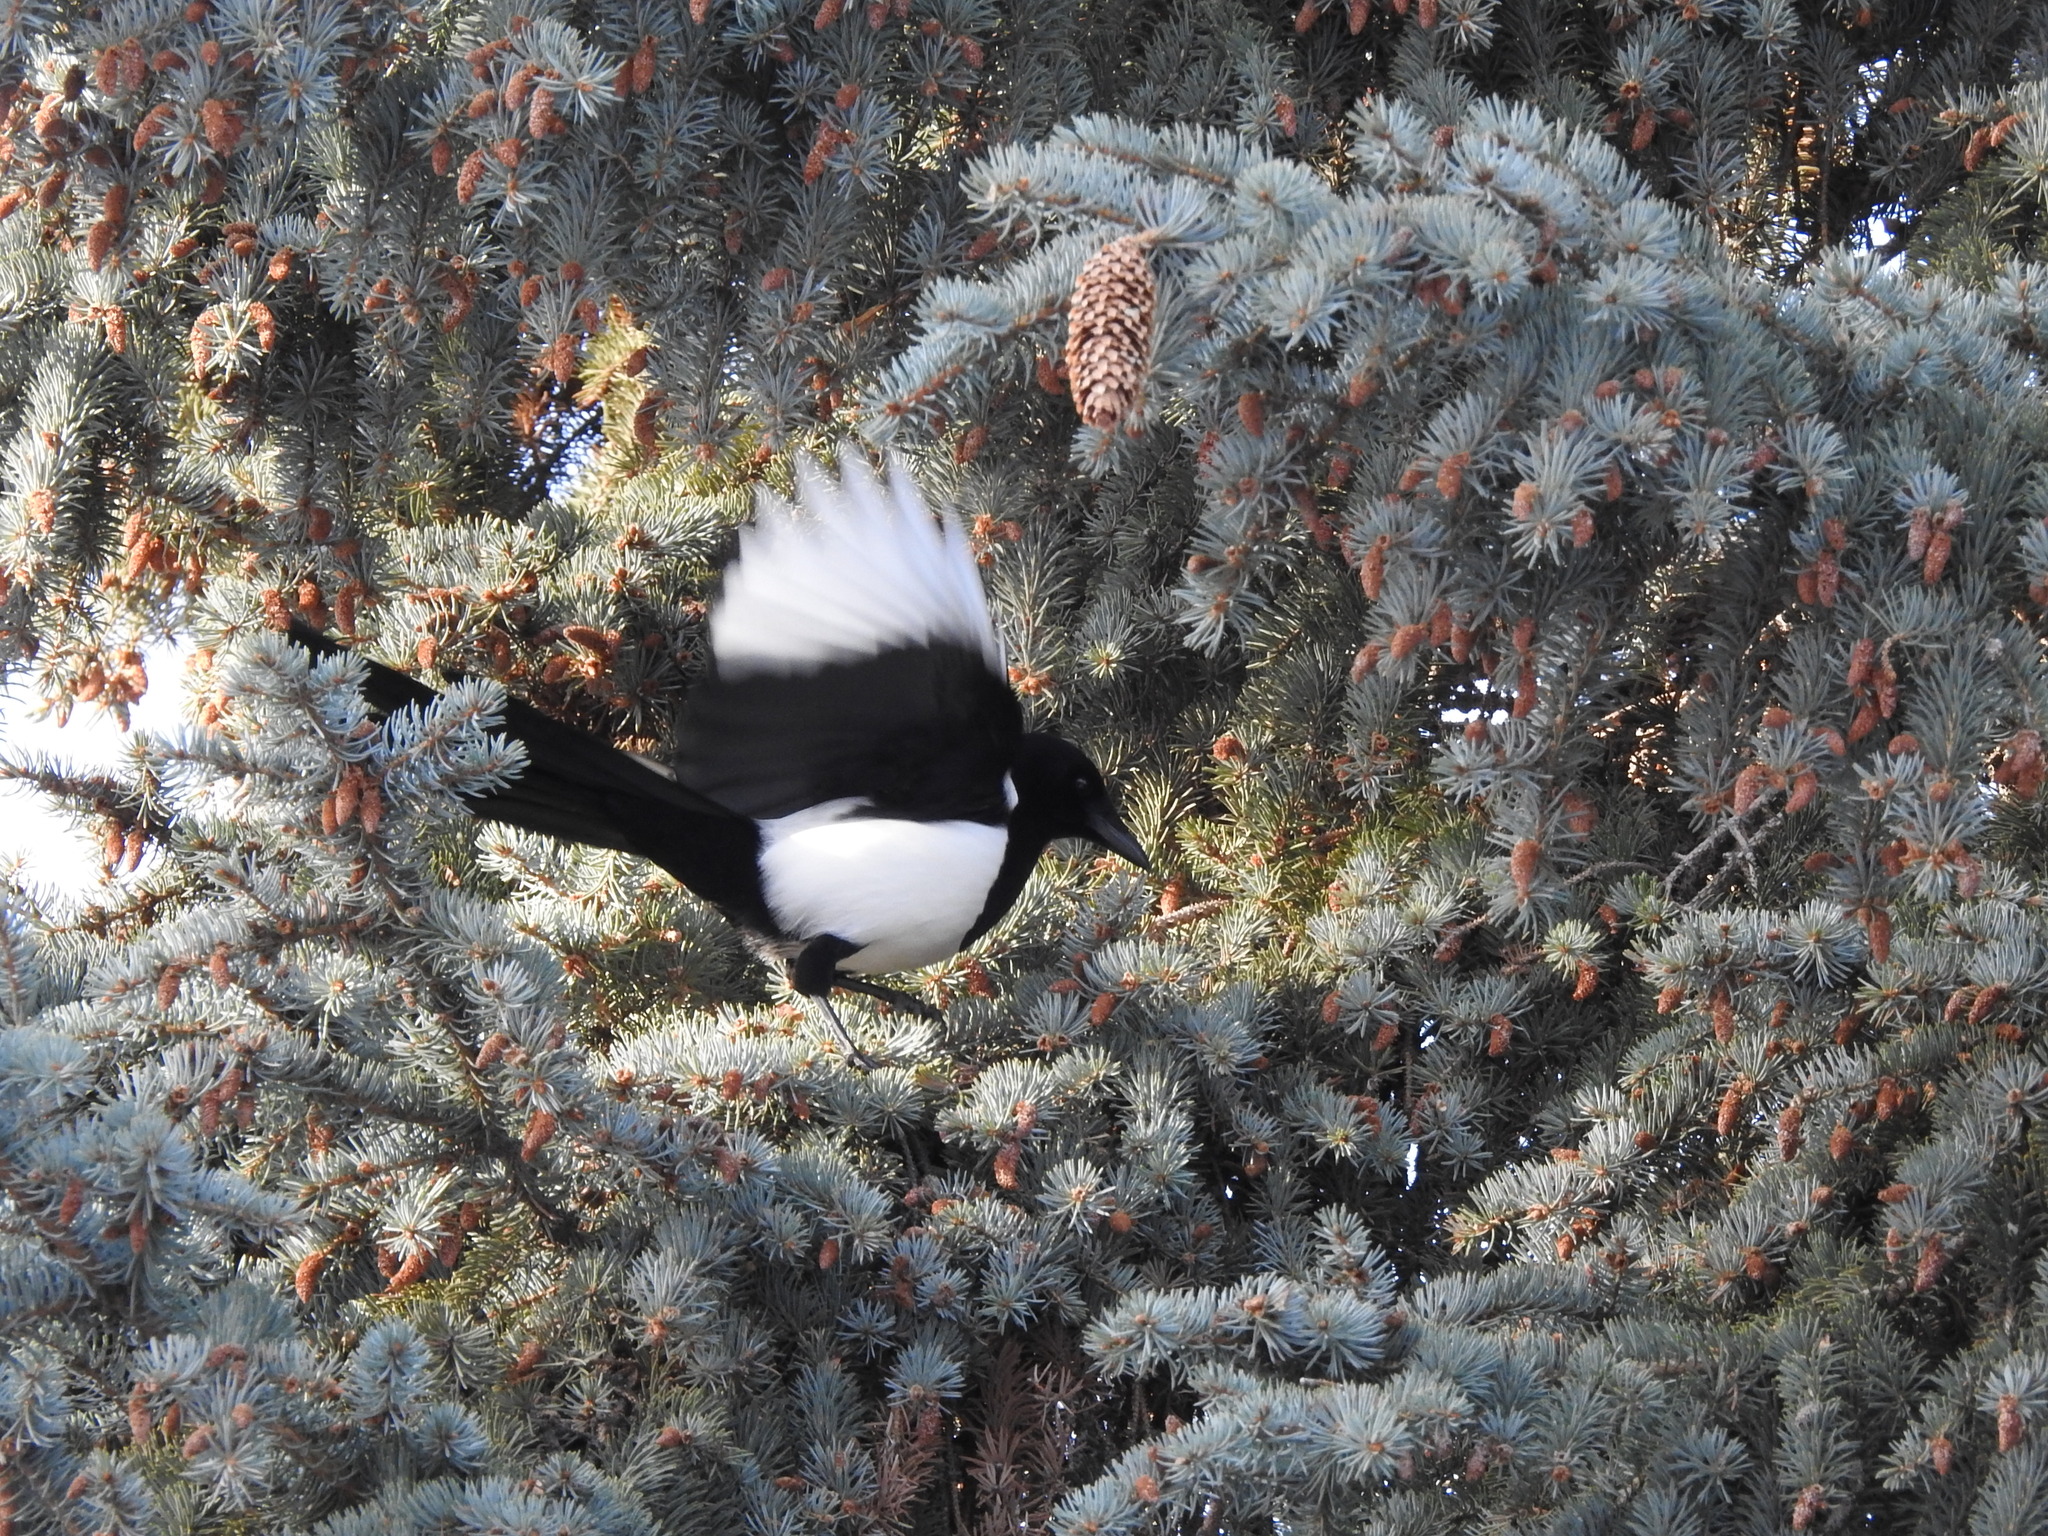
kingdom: Animalia
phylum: Chordata
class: Aves
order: Passeriformes
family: Corvidae
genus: Pica
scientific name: Pica pica
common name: Eurasian magpie
